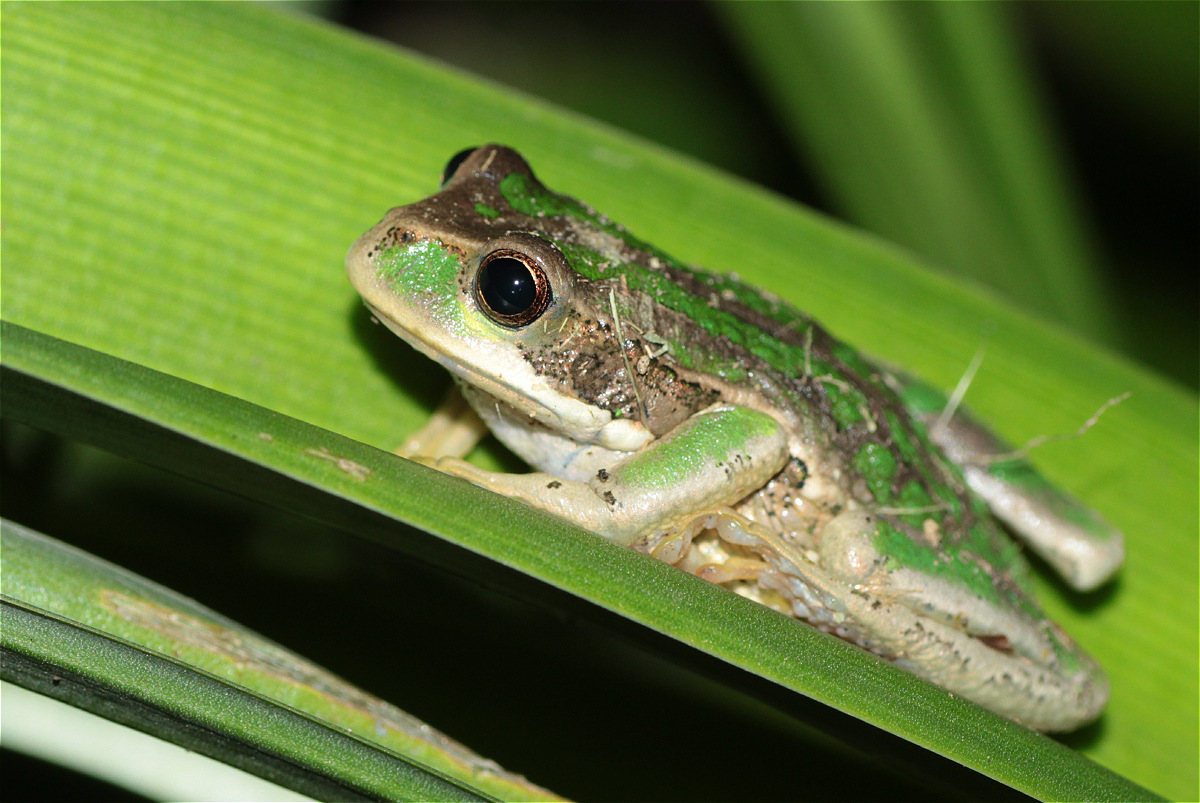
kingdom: Animalia
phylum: Chordata
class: Amphibia
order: Anura
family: Hemiphractidae
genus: Gastrotheca
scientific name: Gastrotheca cuencana
